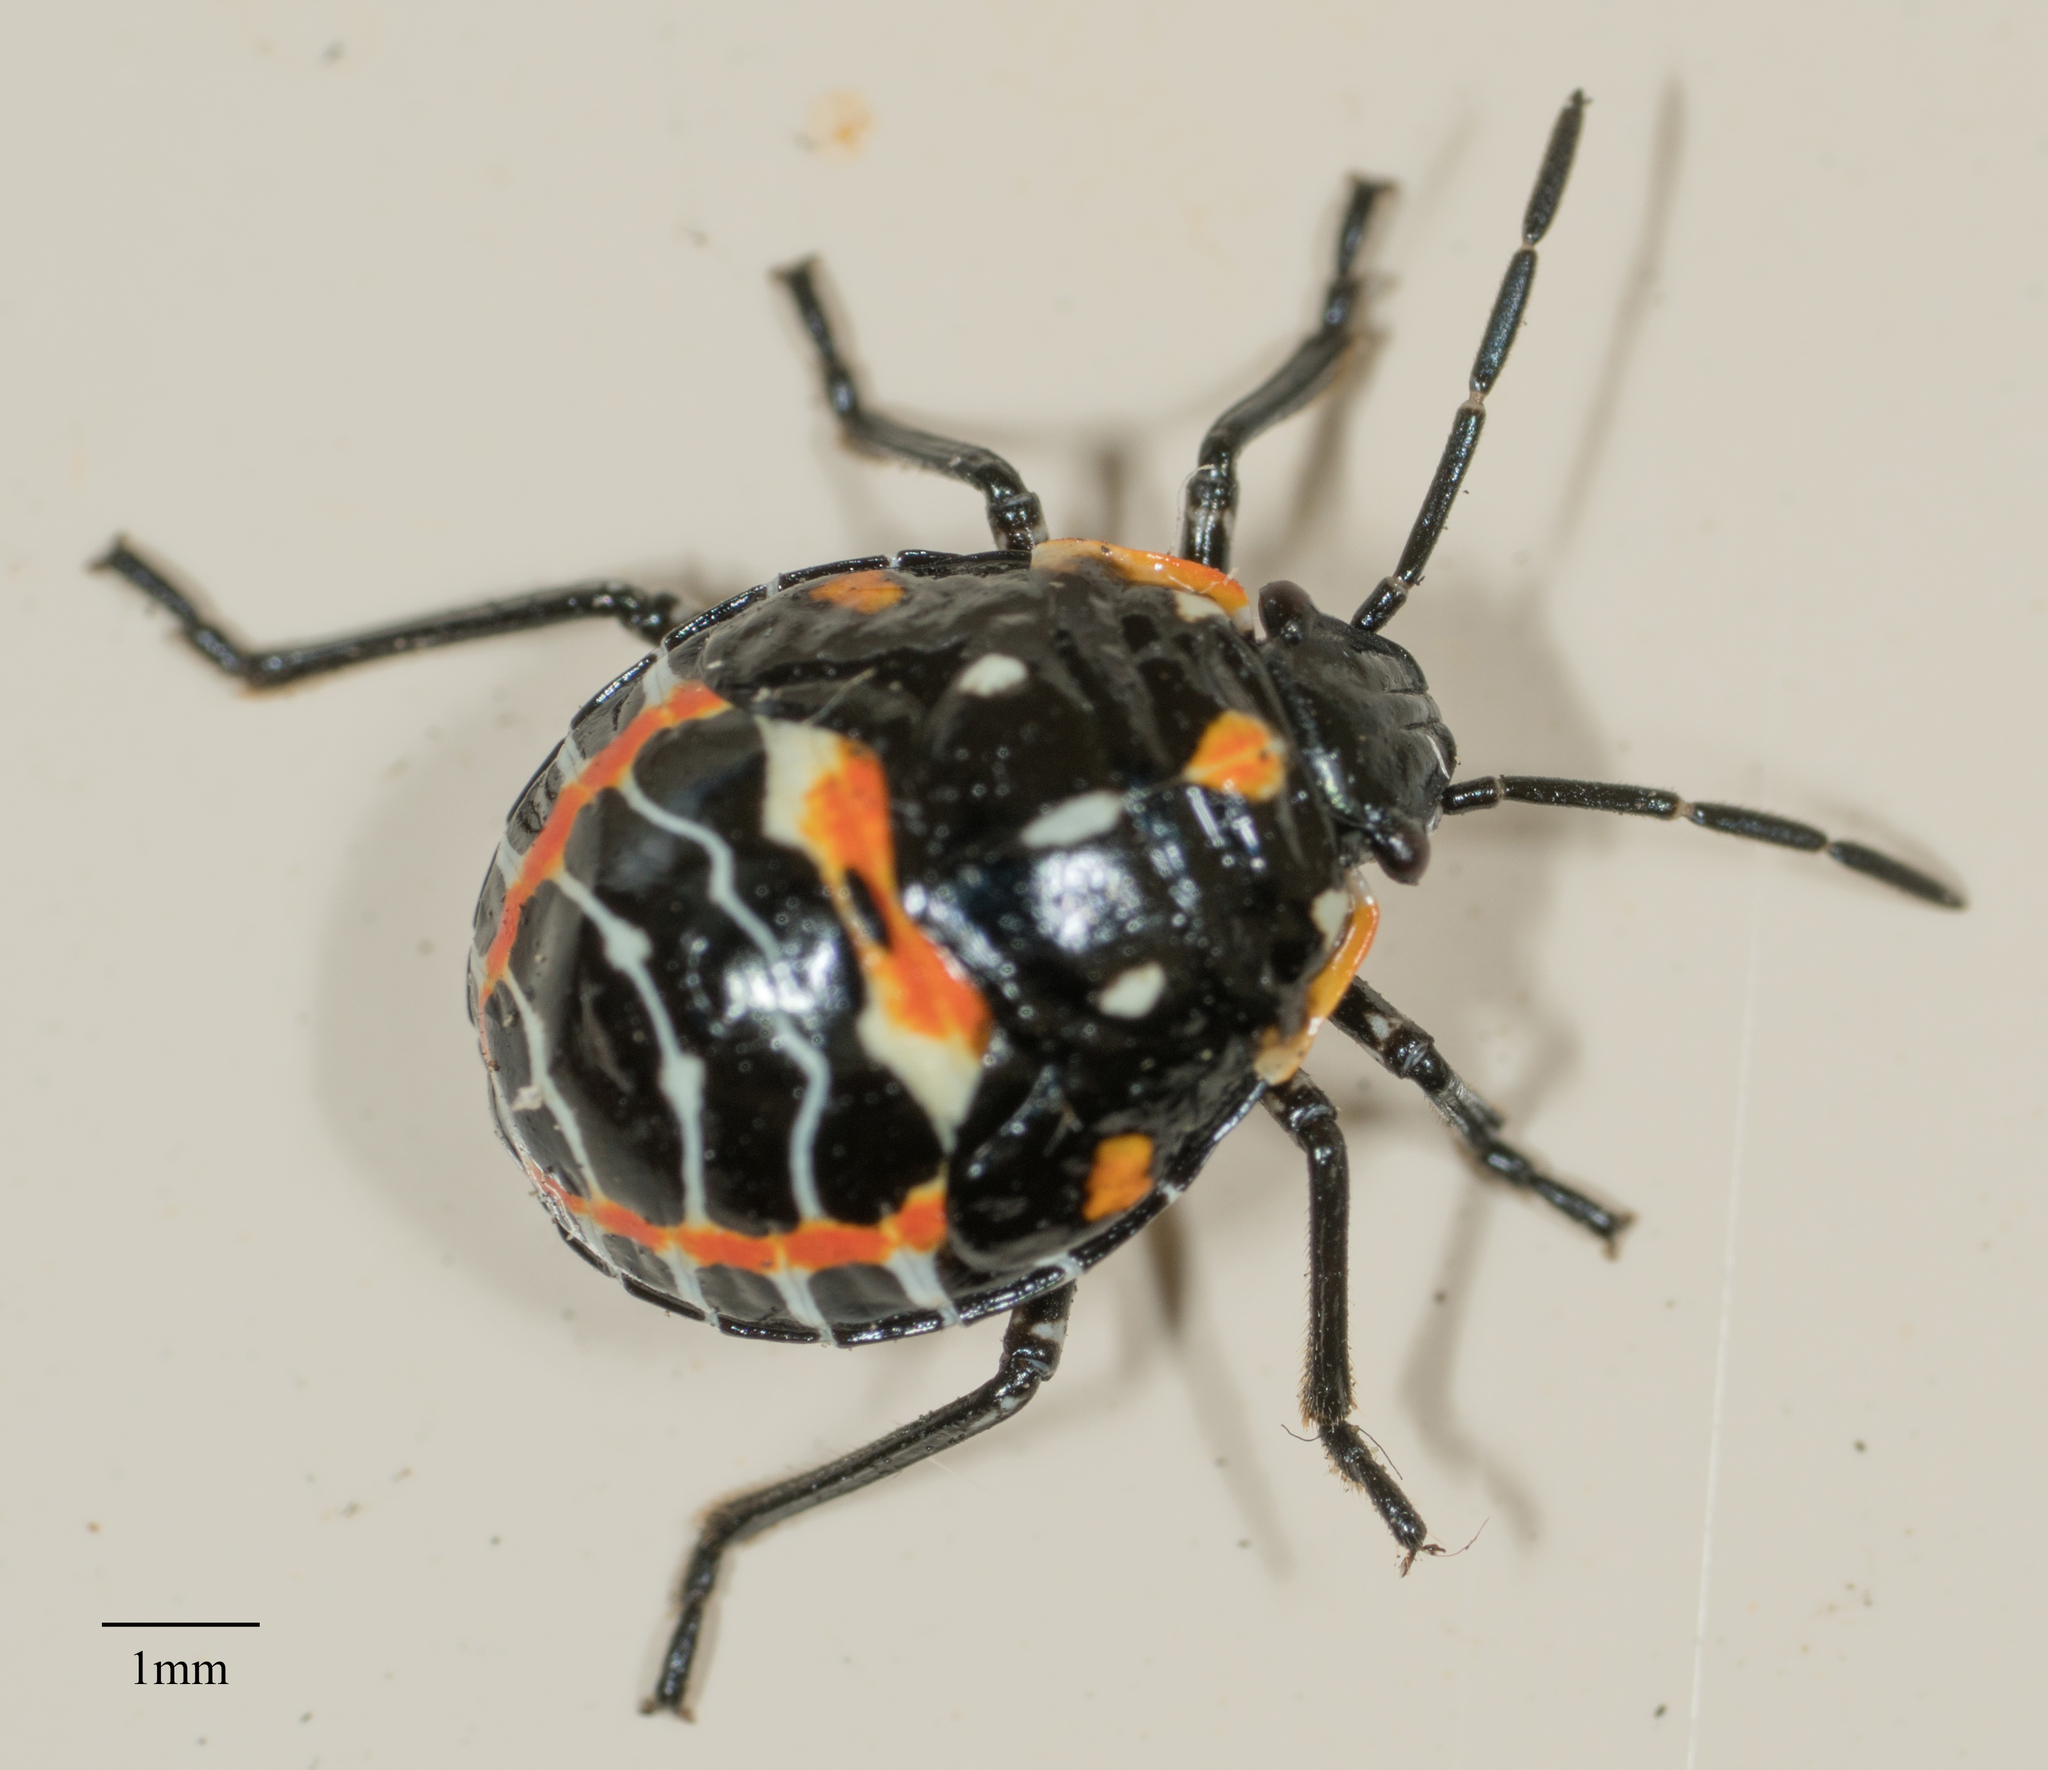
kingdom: Animalia
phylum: Arthropoda
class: Insecta
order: Hemiptera
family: Pentatomidae
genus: Murgantia
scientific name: Murgantia histrionica
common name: Harlequin bug
